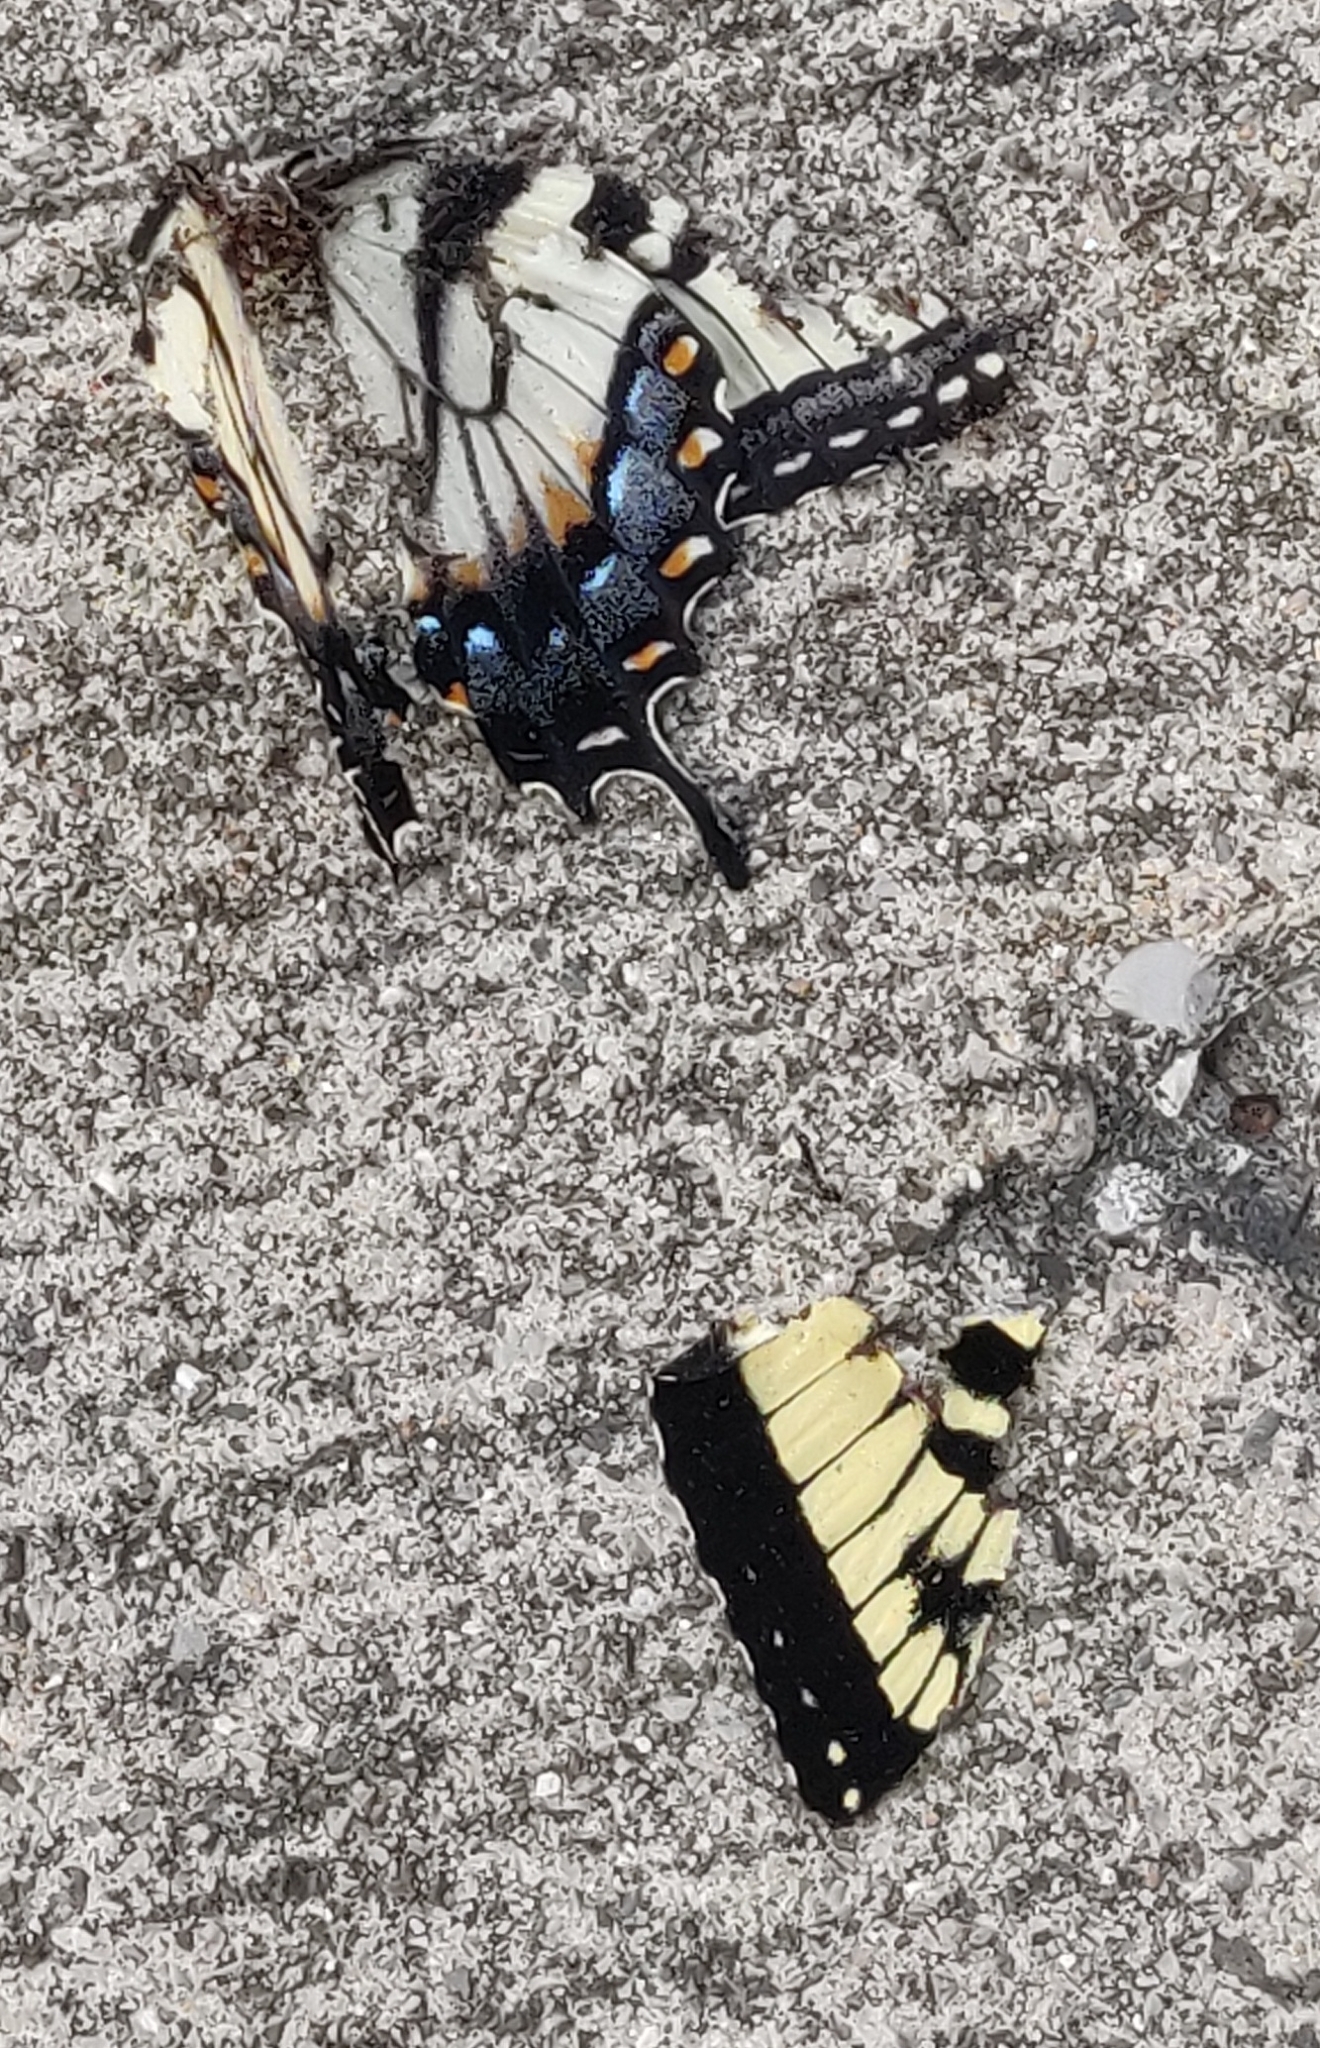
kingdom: Animalia
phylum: Arthropoda
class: Insecta
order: Lepidoptera
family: Papilionidae
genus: Papilio
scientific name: Papilio glaucus
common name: Tiger swallowtail
